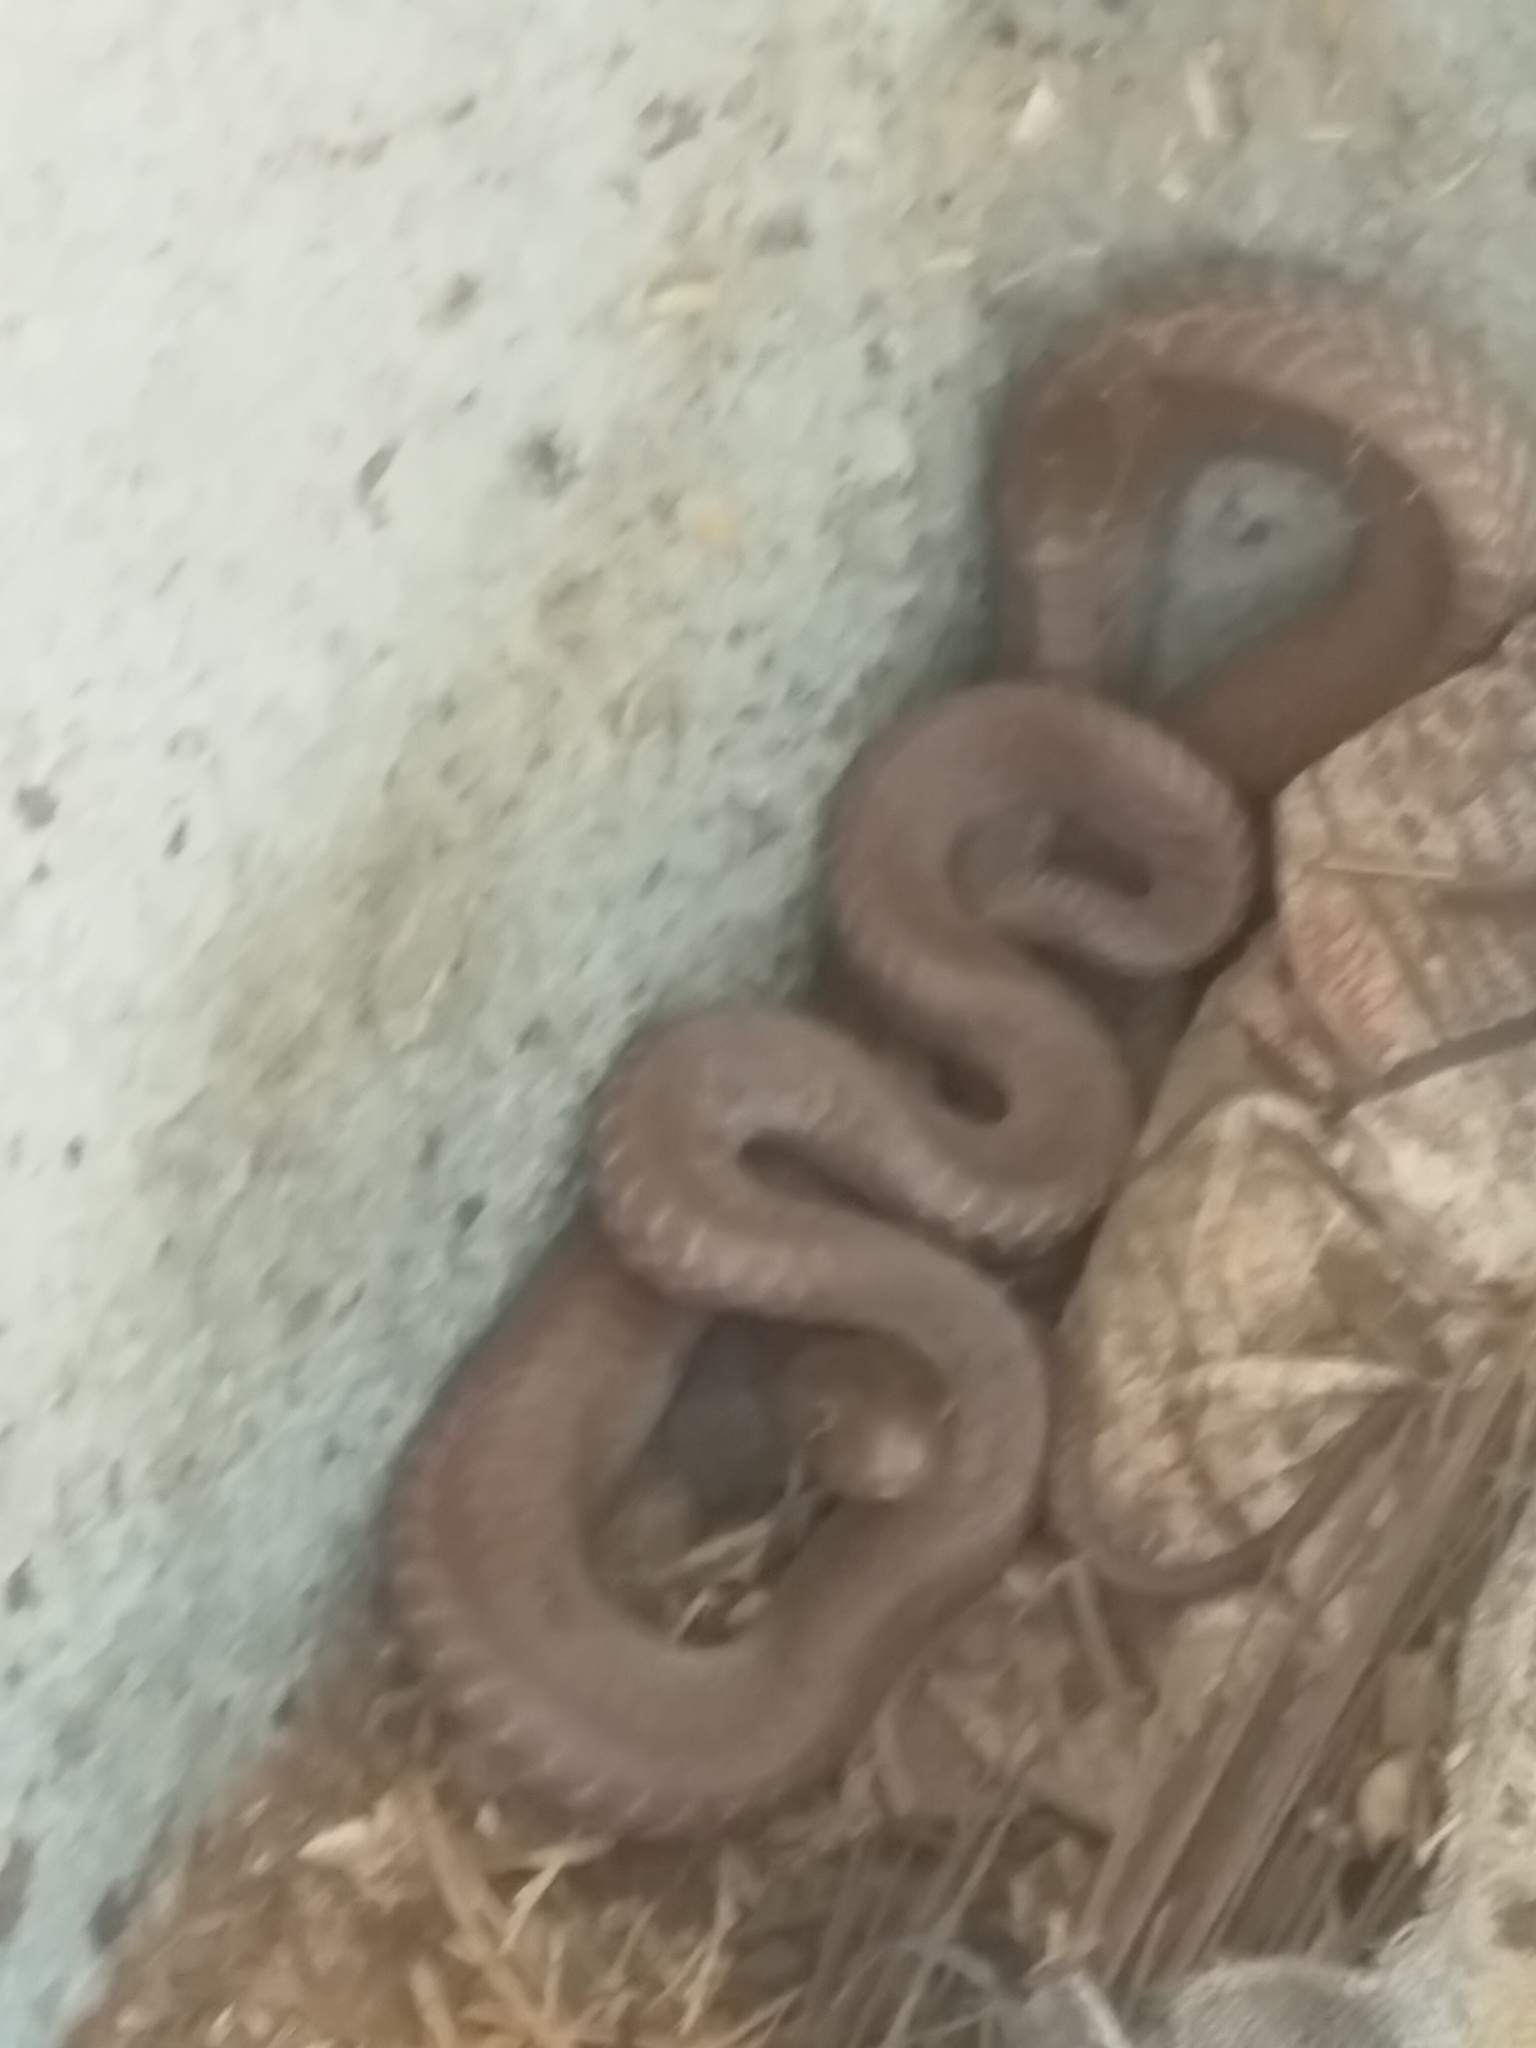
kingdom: Animalia
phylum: Chordata
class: Squamata
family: Elapidae
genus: Naja
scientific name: Naja naja
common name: Indian cobra
